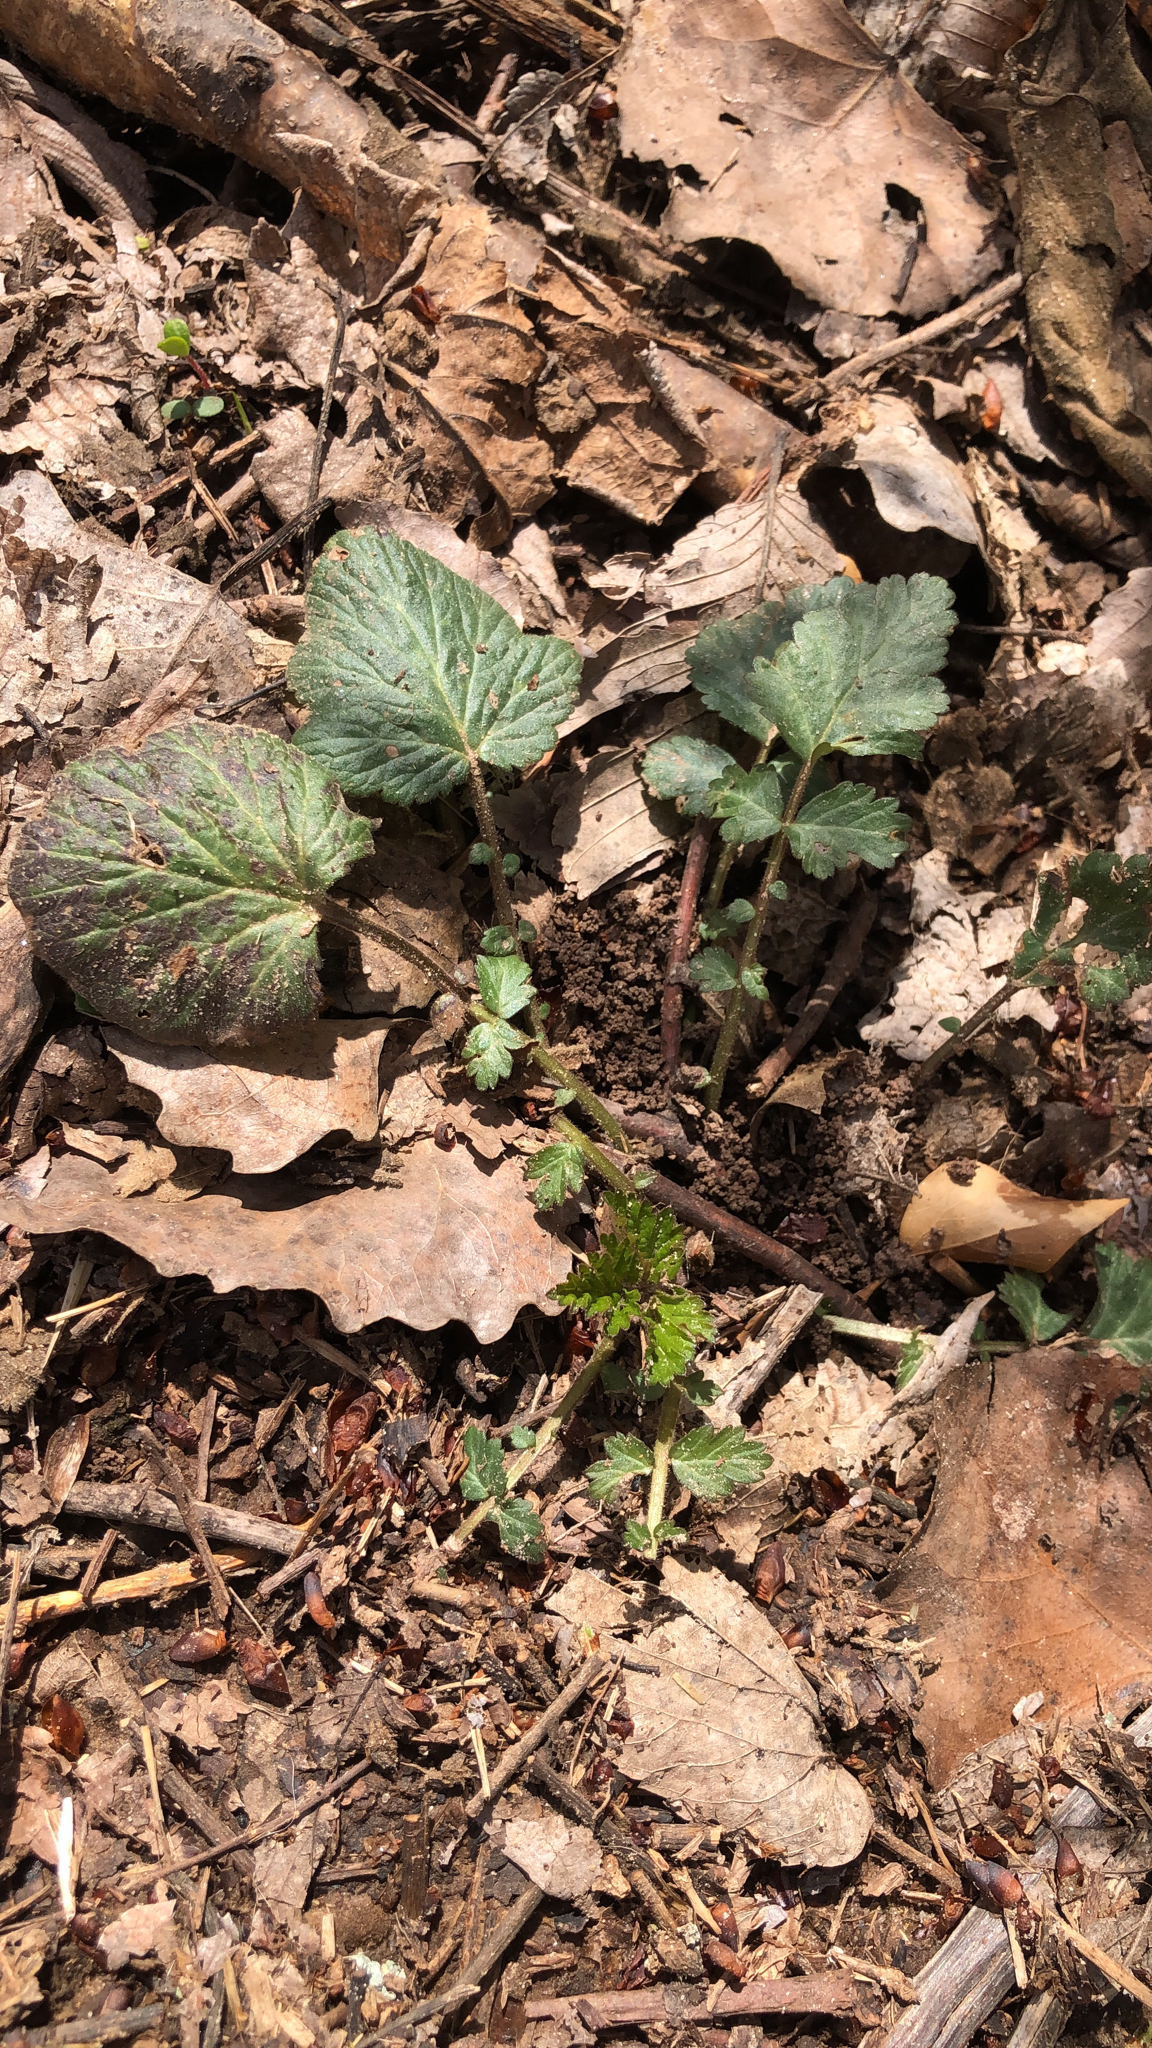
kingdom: Plantae
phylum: Tracheophyta
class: Magnoliopsida
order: Rosales
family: Rosaceae
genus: Geum
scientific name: Geum canadense
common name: White avens
